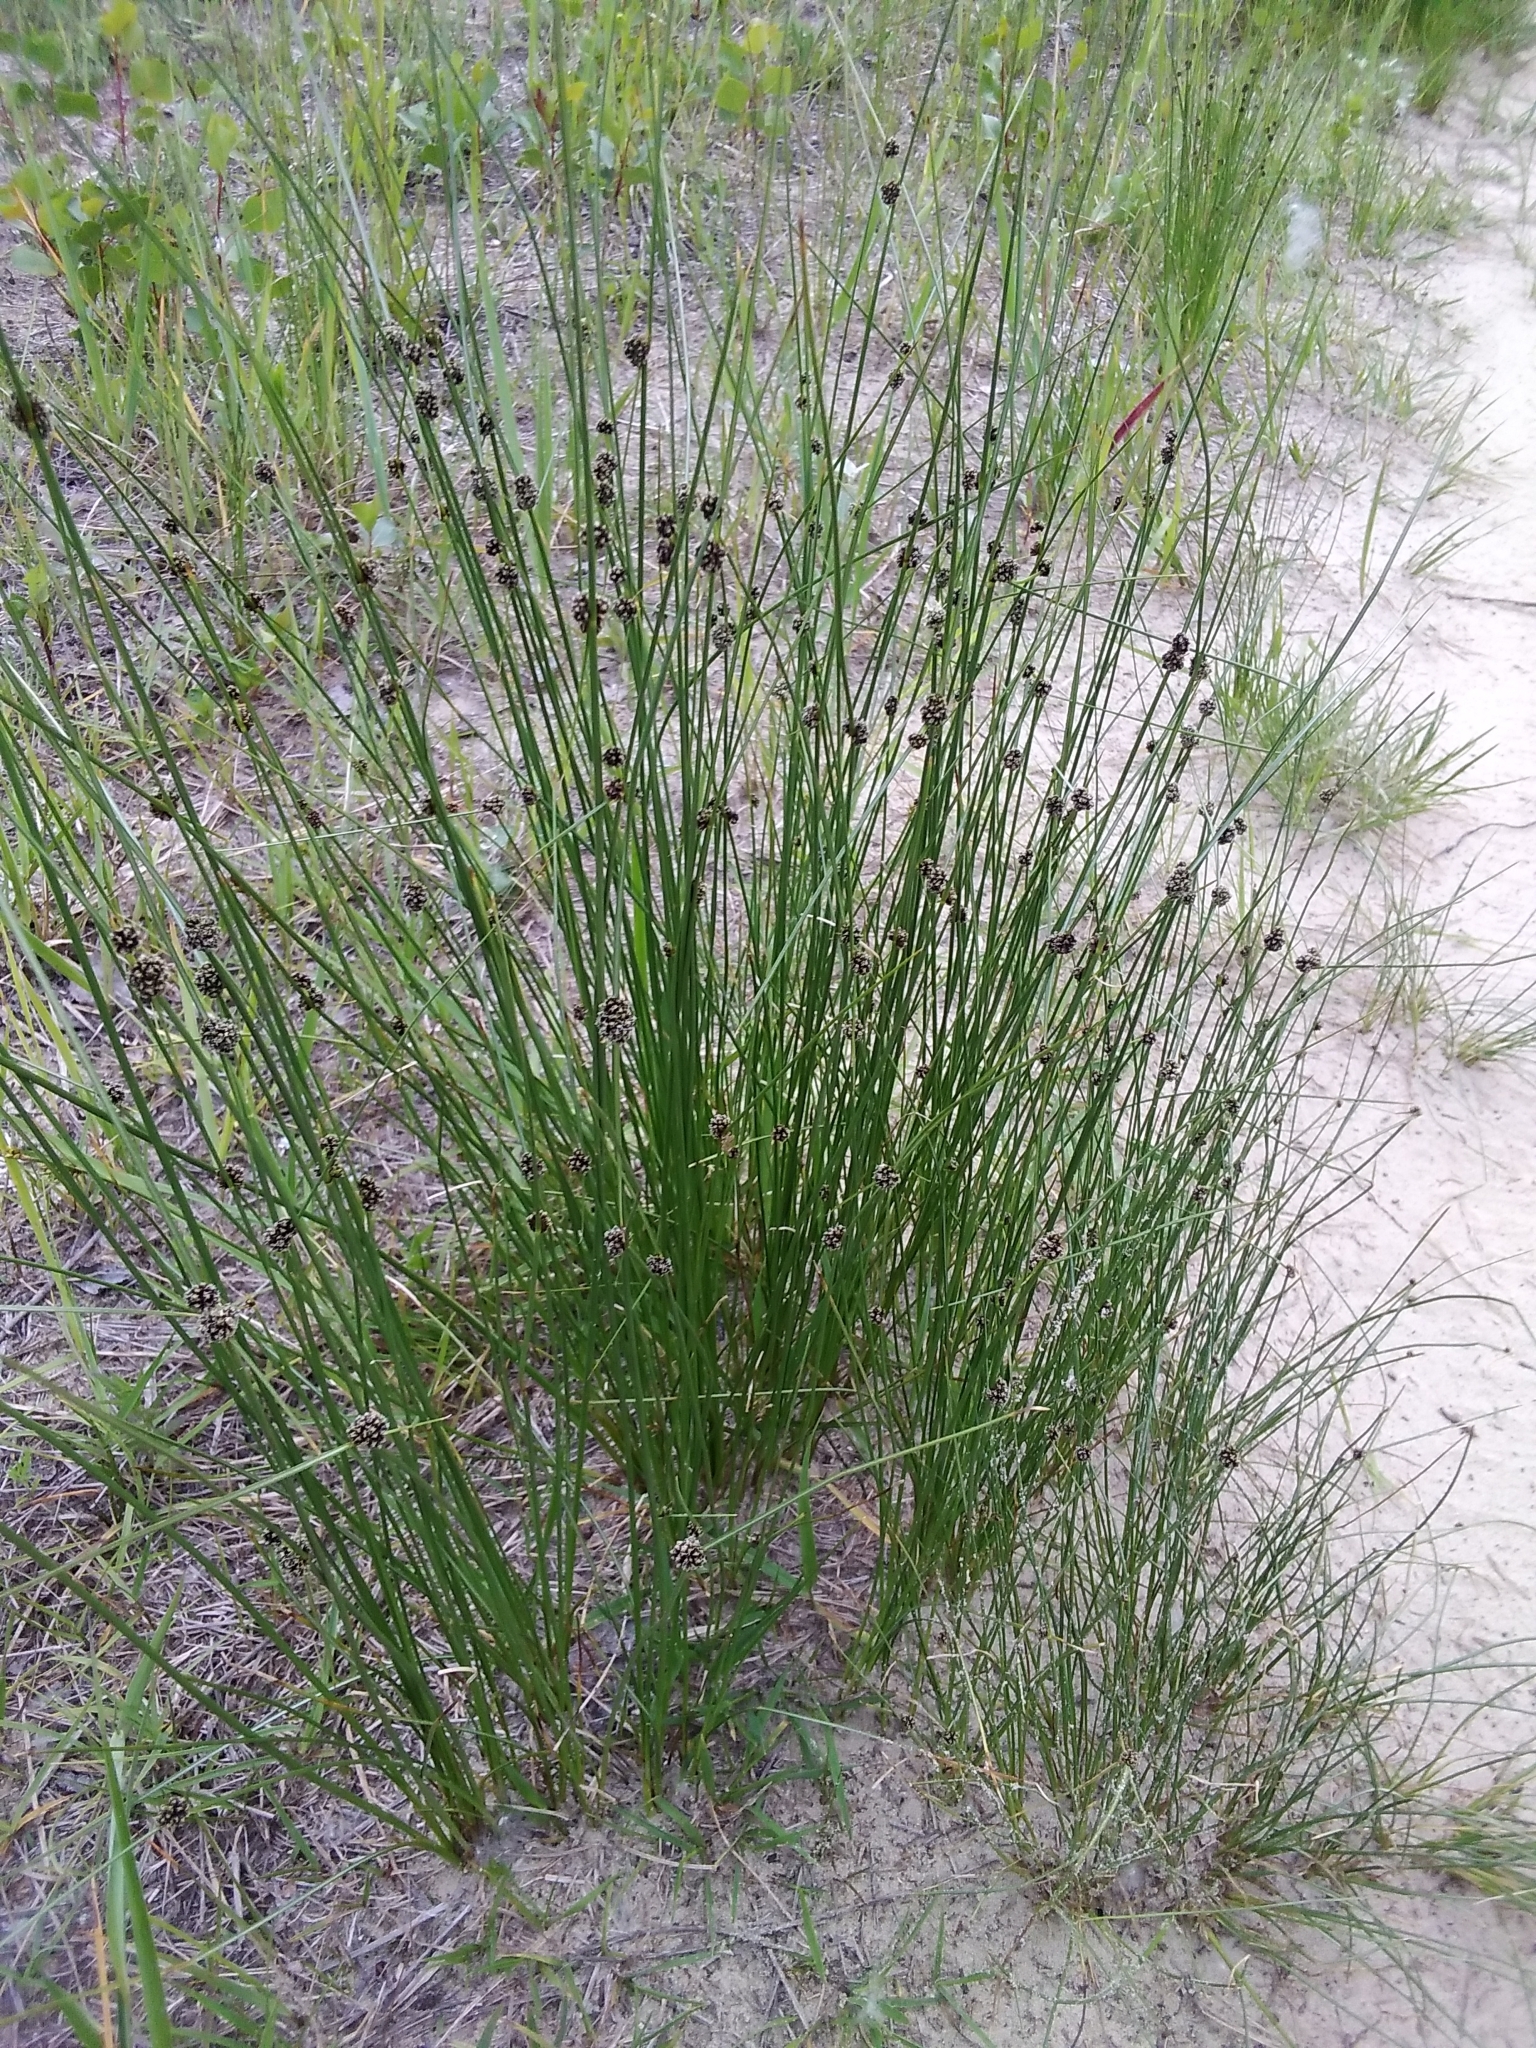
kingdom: Plantae
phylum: Tracheophyta
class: Liliopsida
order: Poales
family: Cyperaceae
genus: Scirpoides
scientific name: Scirpoides holoschoenus
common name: Round-headed club-rush
